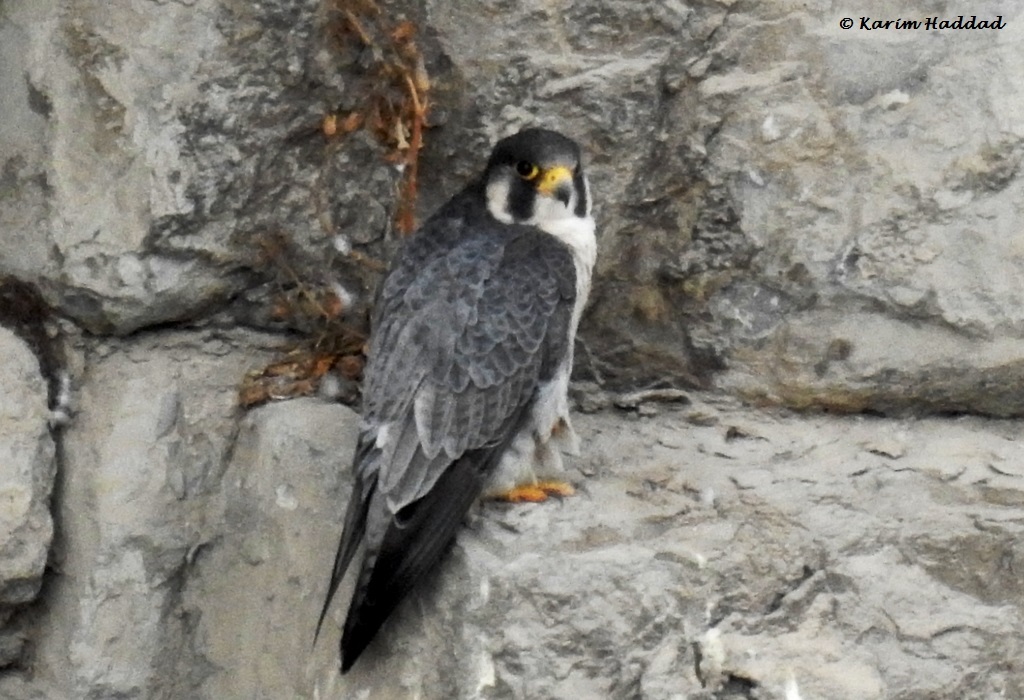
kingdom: Animalia
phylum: Chordata
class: Aves
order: Falconiformes
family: Falconidae
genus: Falco
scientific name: Falco peregrinus
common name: Peregrine falcon
